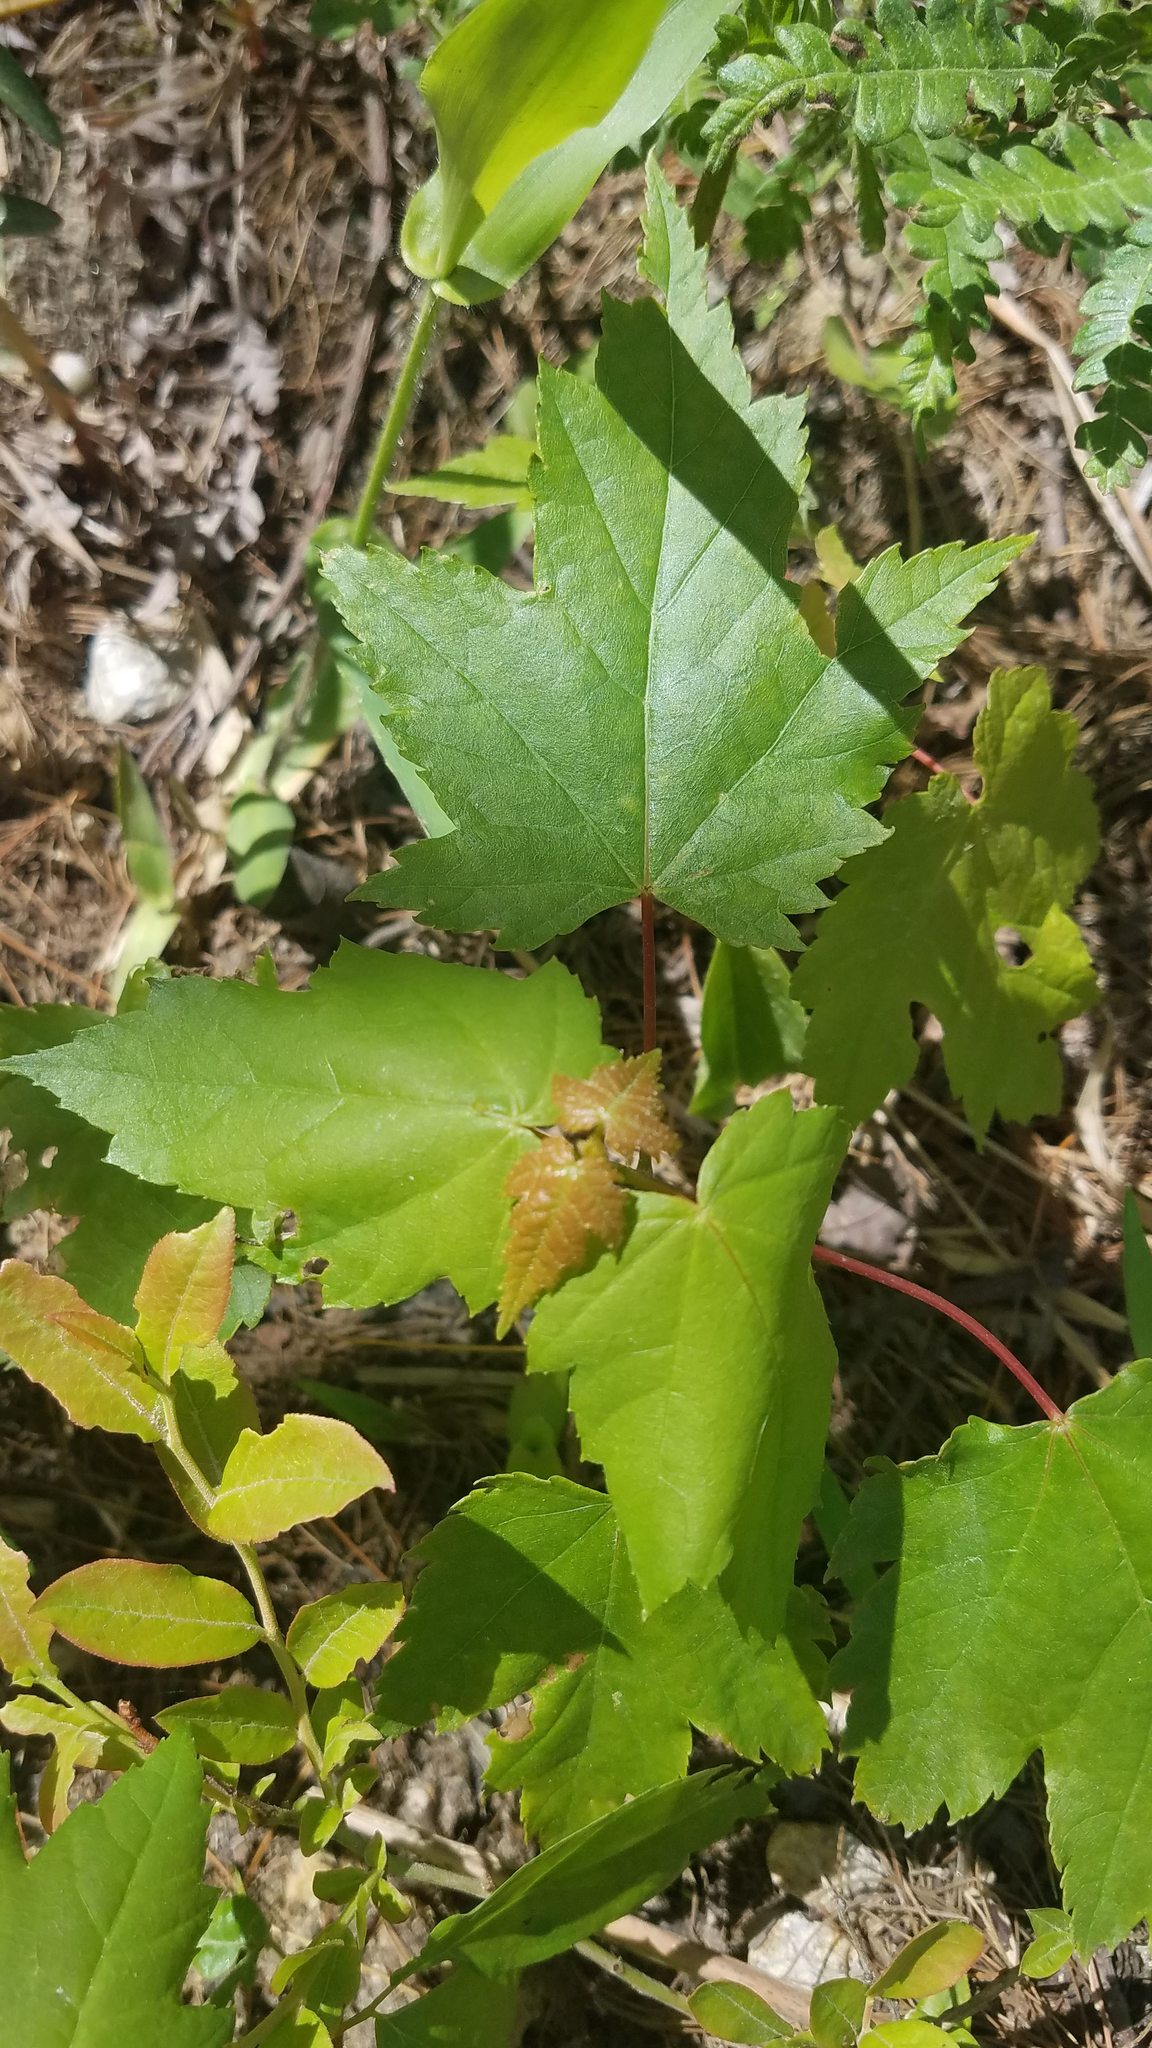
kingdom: Plantae
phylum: Tracheophyta
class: Magnoliopsida
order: Sapindales
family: Sapindaceae
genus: Acer
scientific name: Acer rubrum
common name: Red maple
